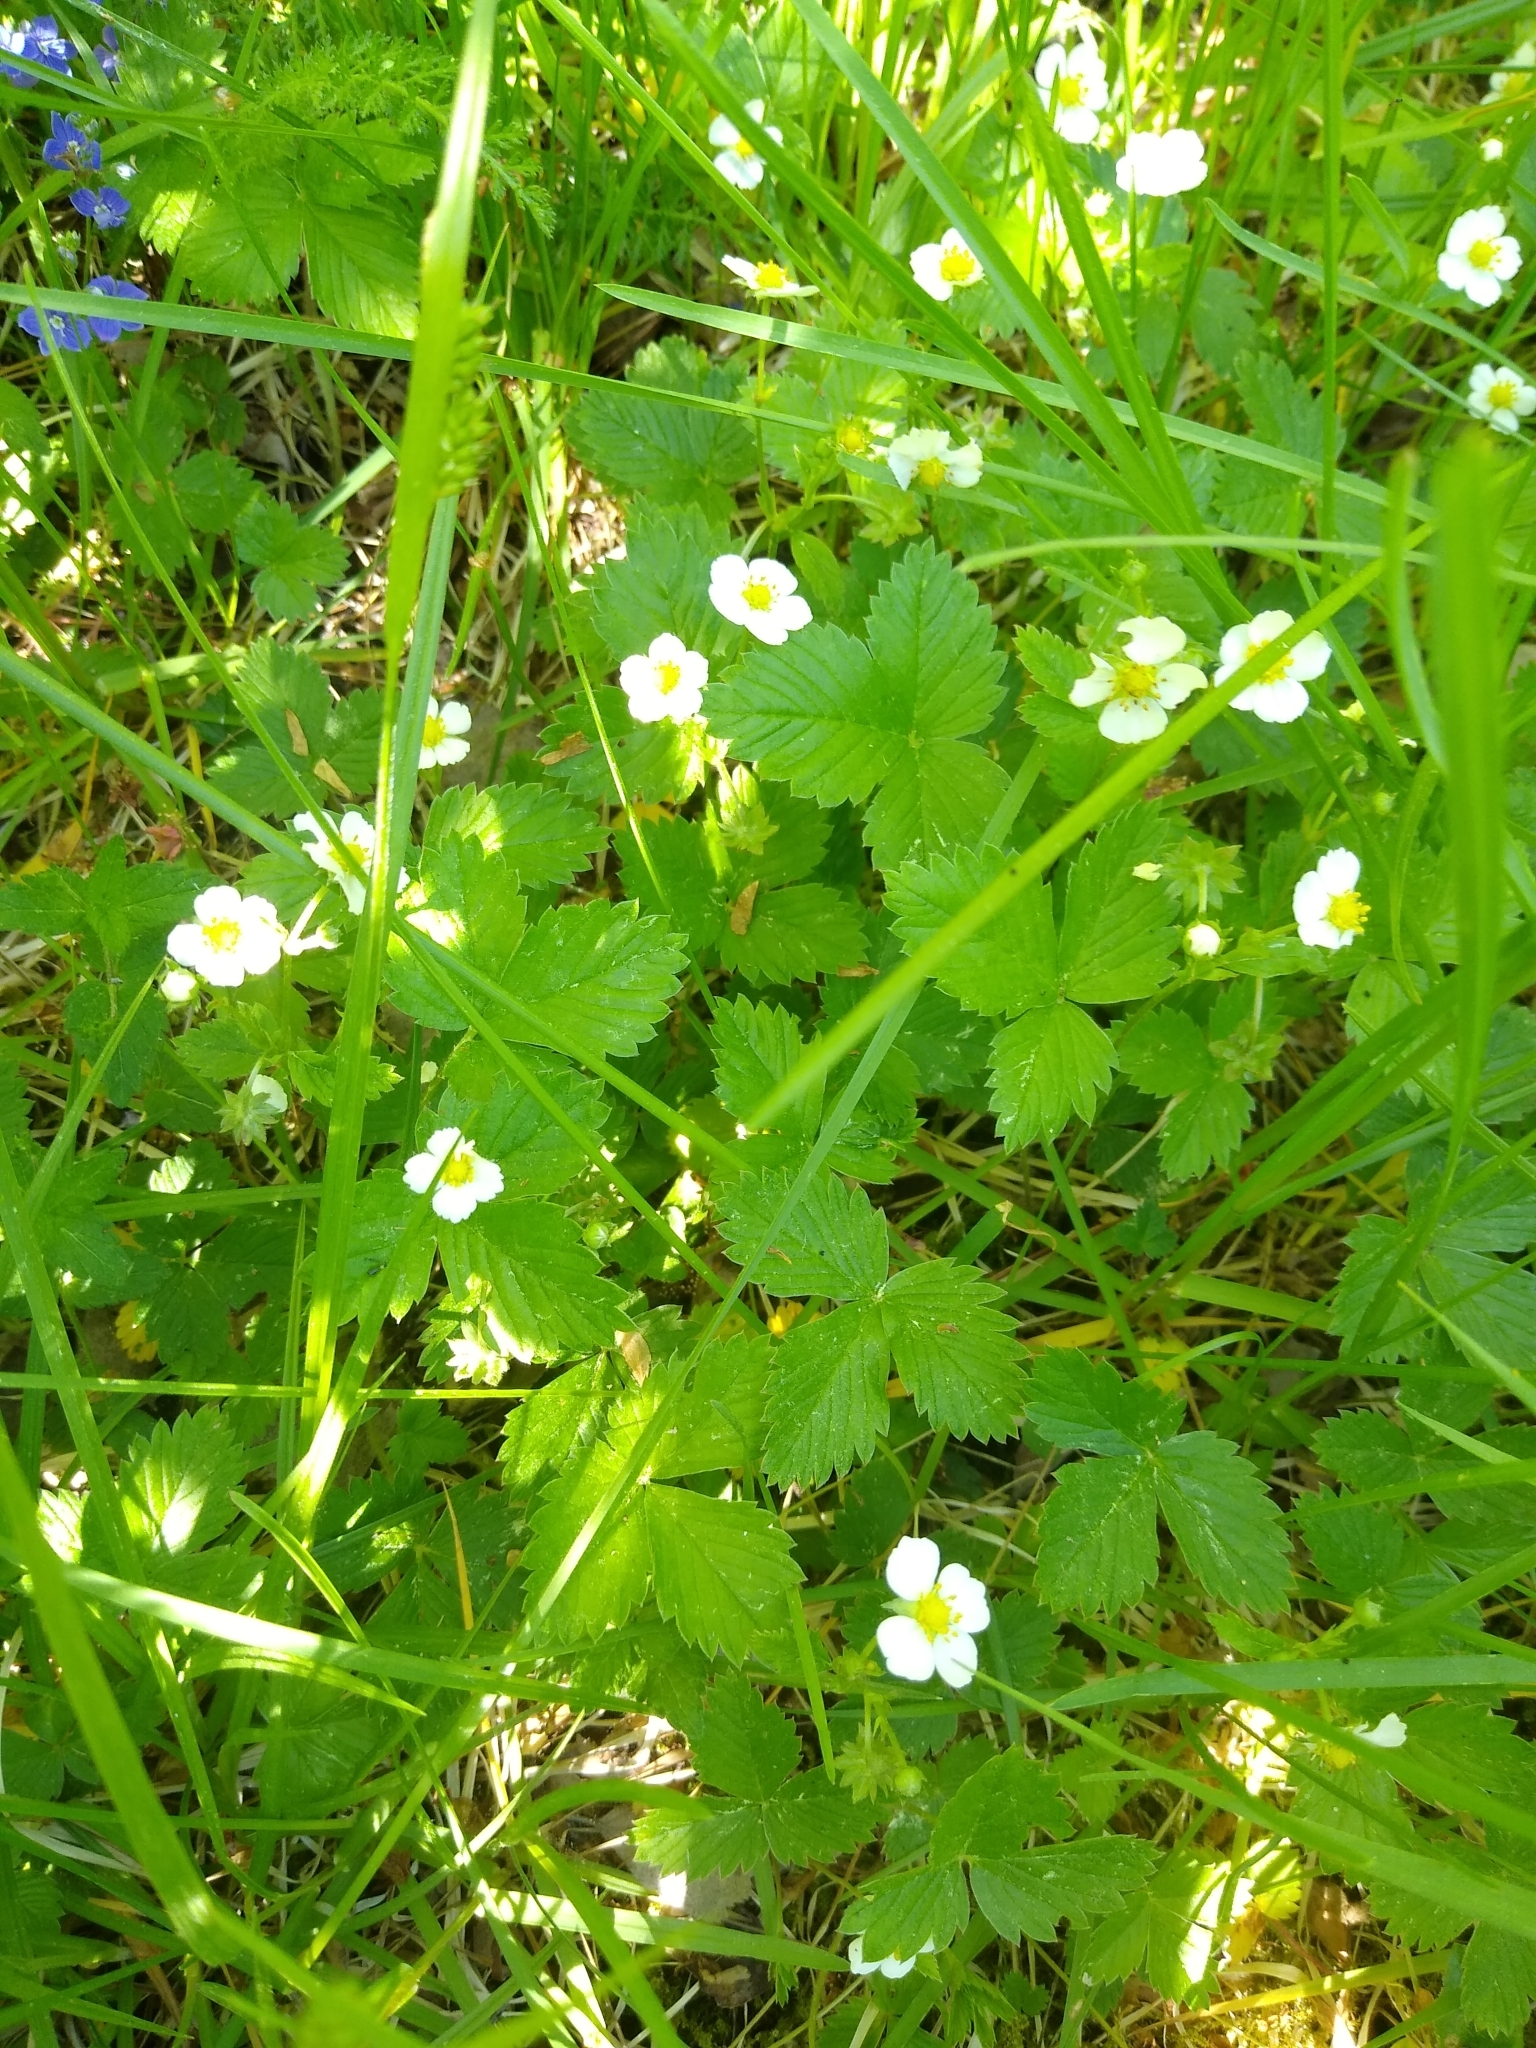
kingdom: Plantae
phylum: Tracheophyta
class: Magnoliopsida
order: Rosales
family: Rosaceae
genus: Fragaria
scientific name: Fragaria vesca
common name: Wild strawberry
